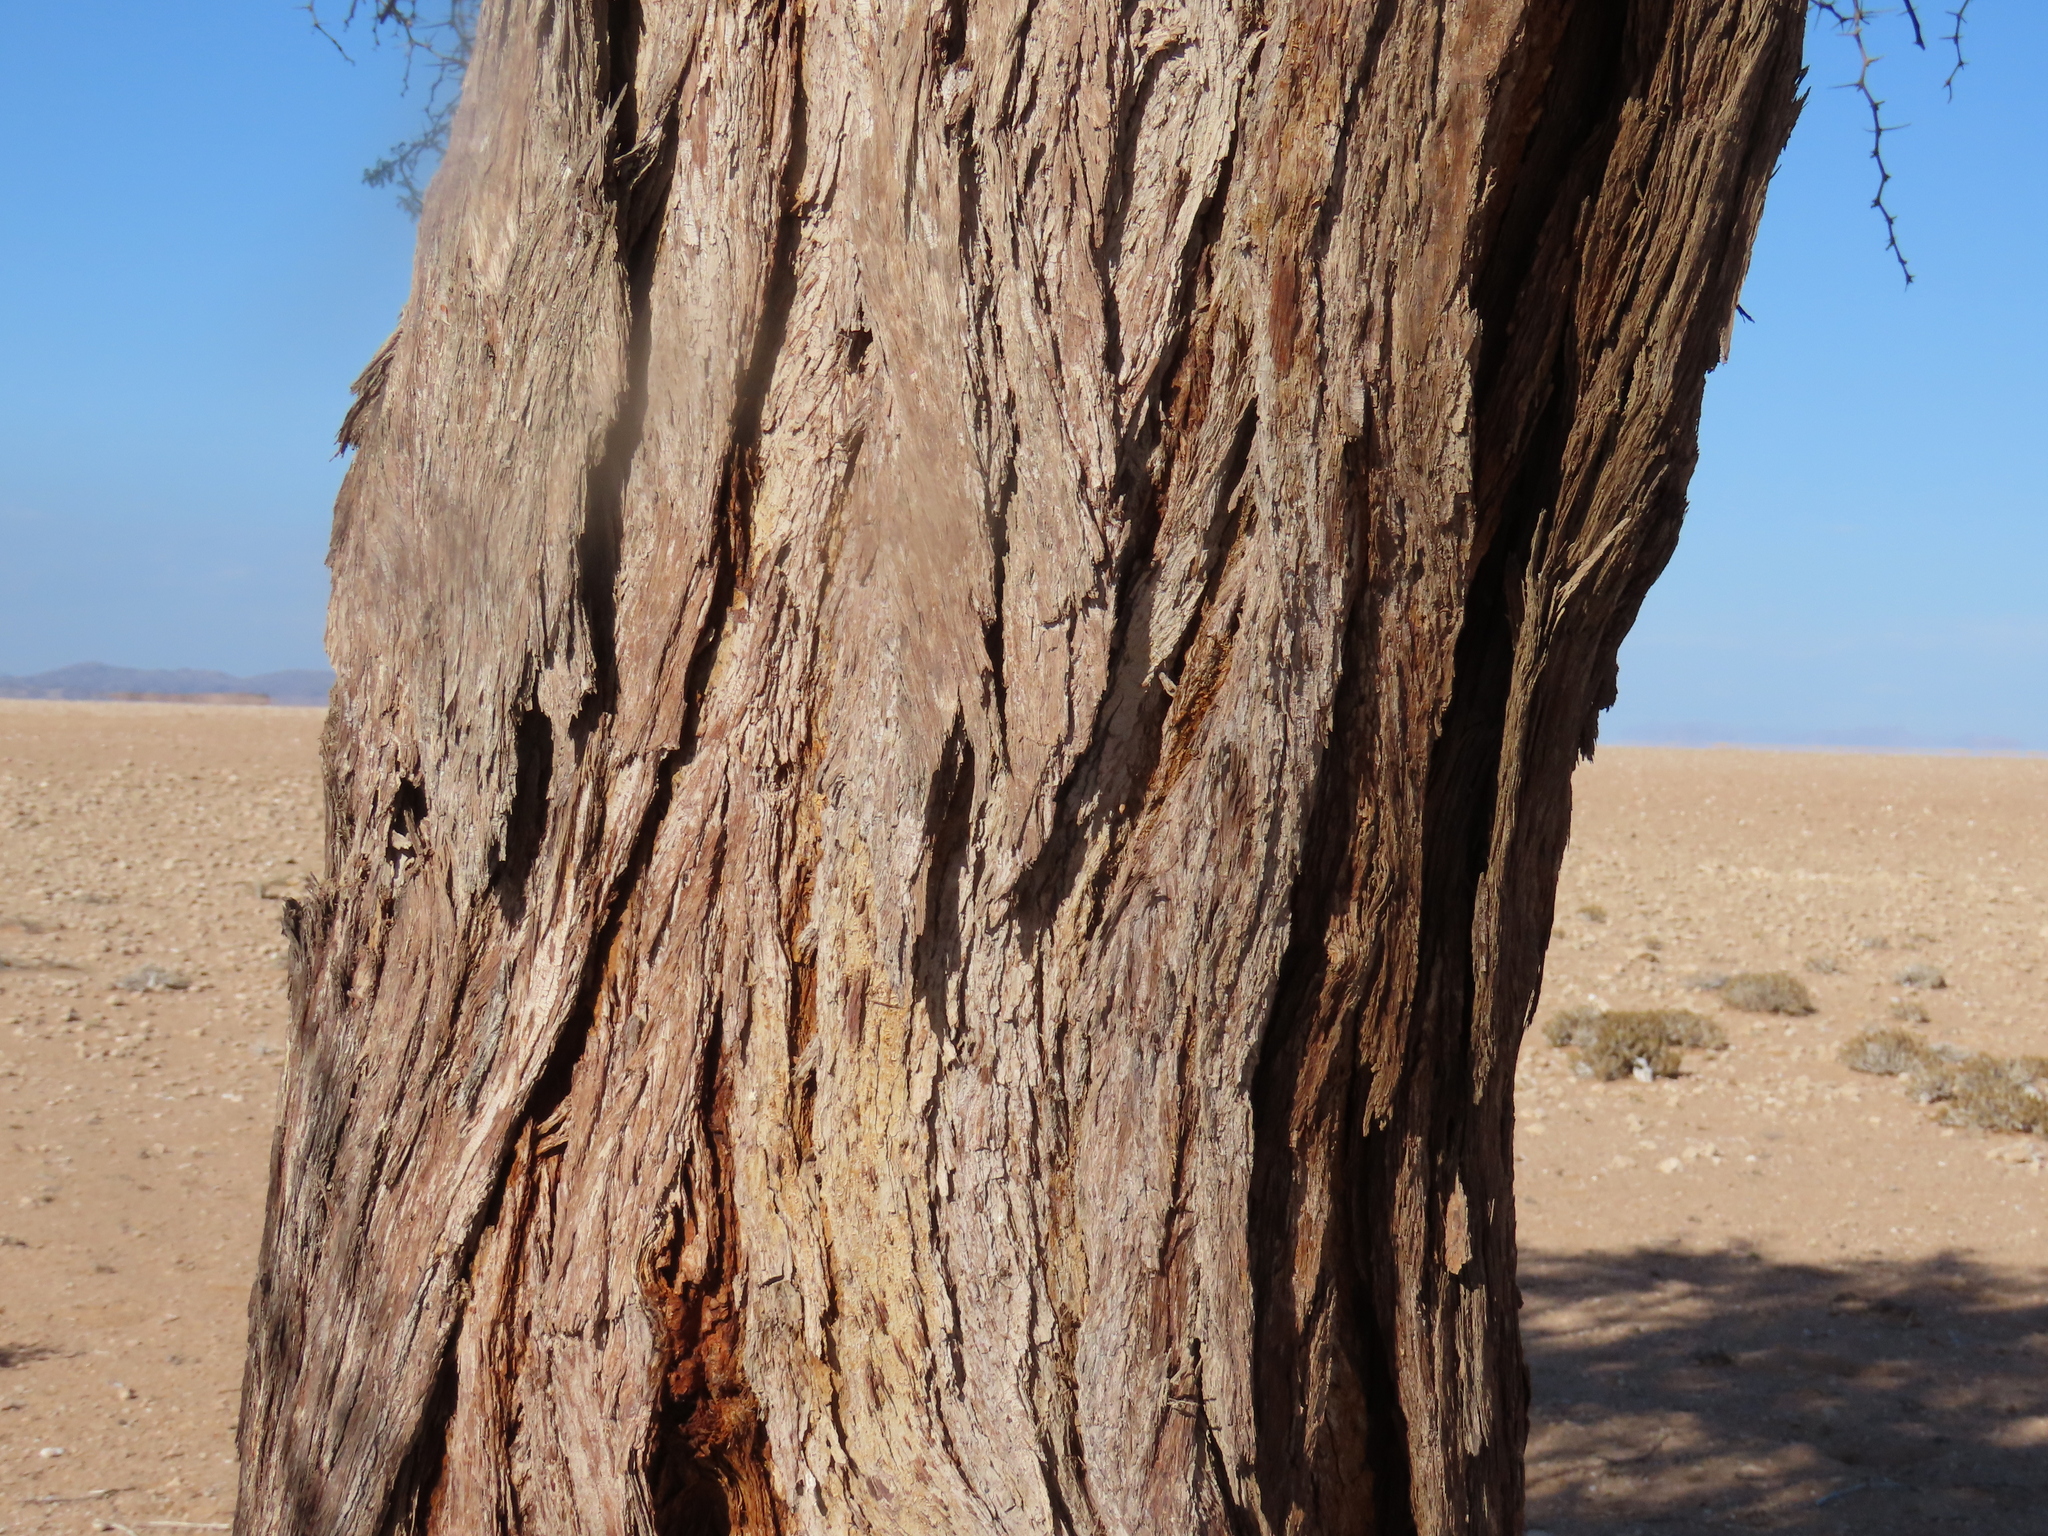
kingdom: Plantae
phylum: Tracheophyta
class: Magnoliopsida
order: Fabales
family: Fabaceae
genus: Vachellia
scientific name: Vachellia erioloba
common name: Camel thorn
